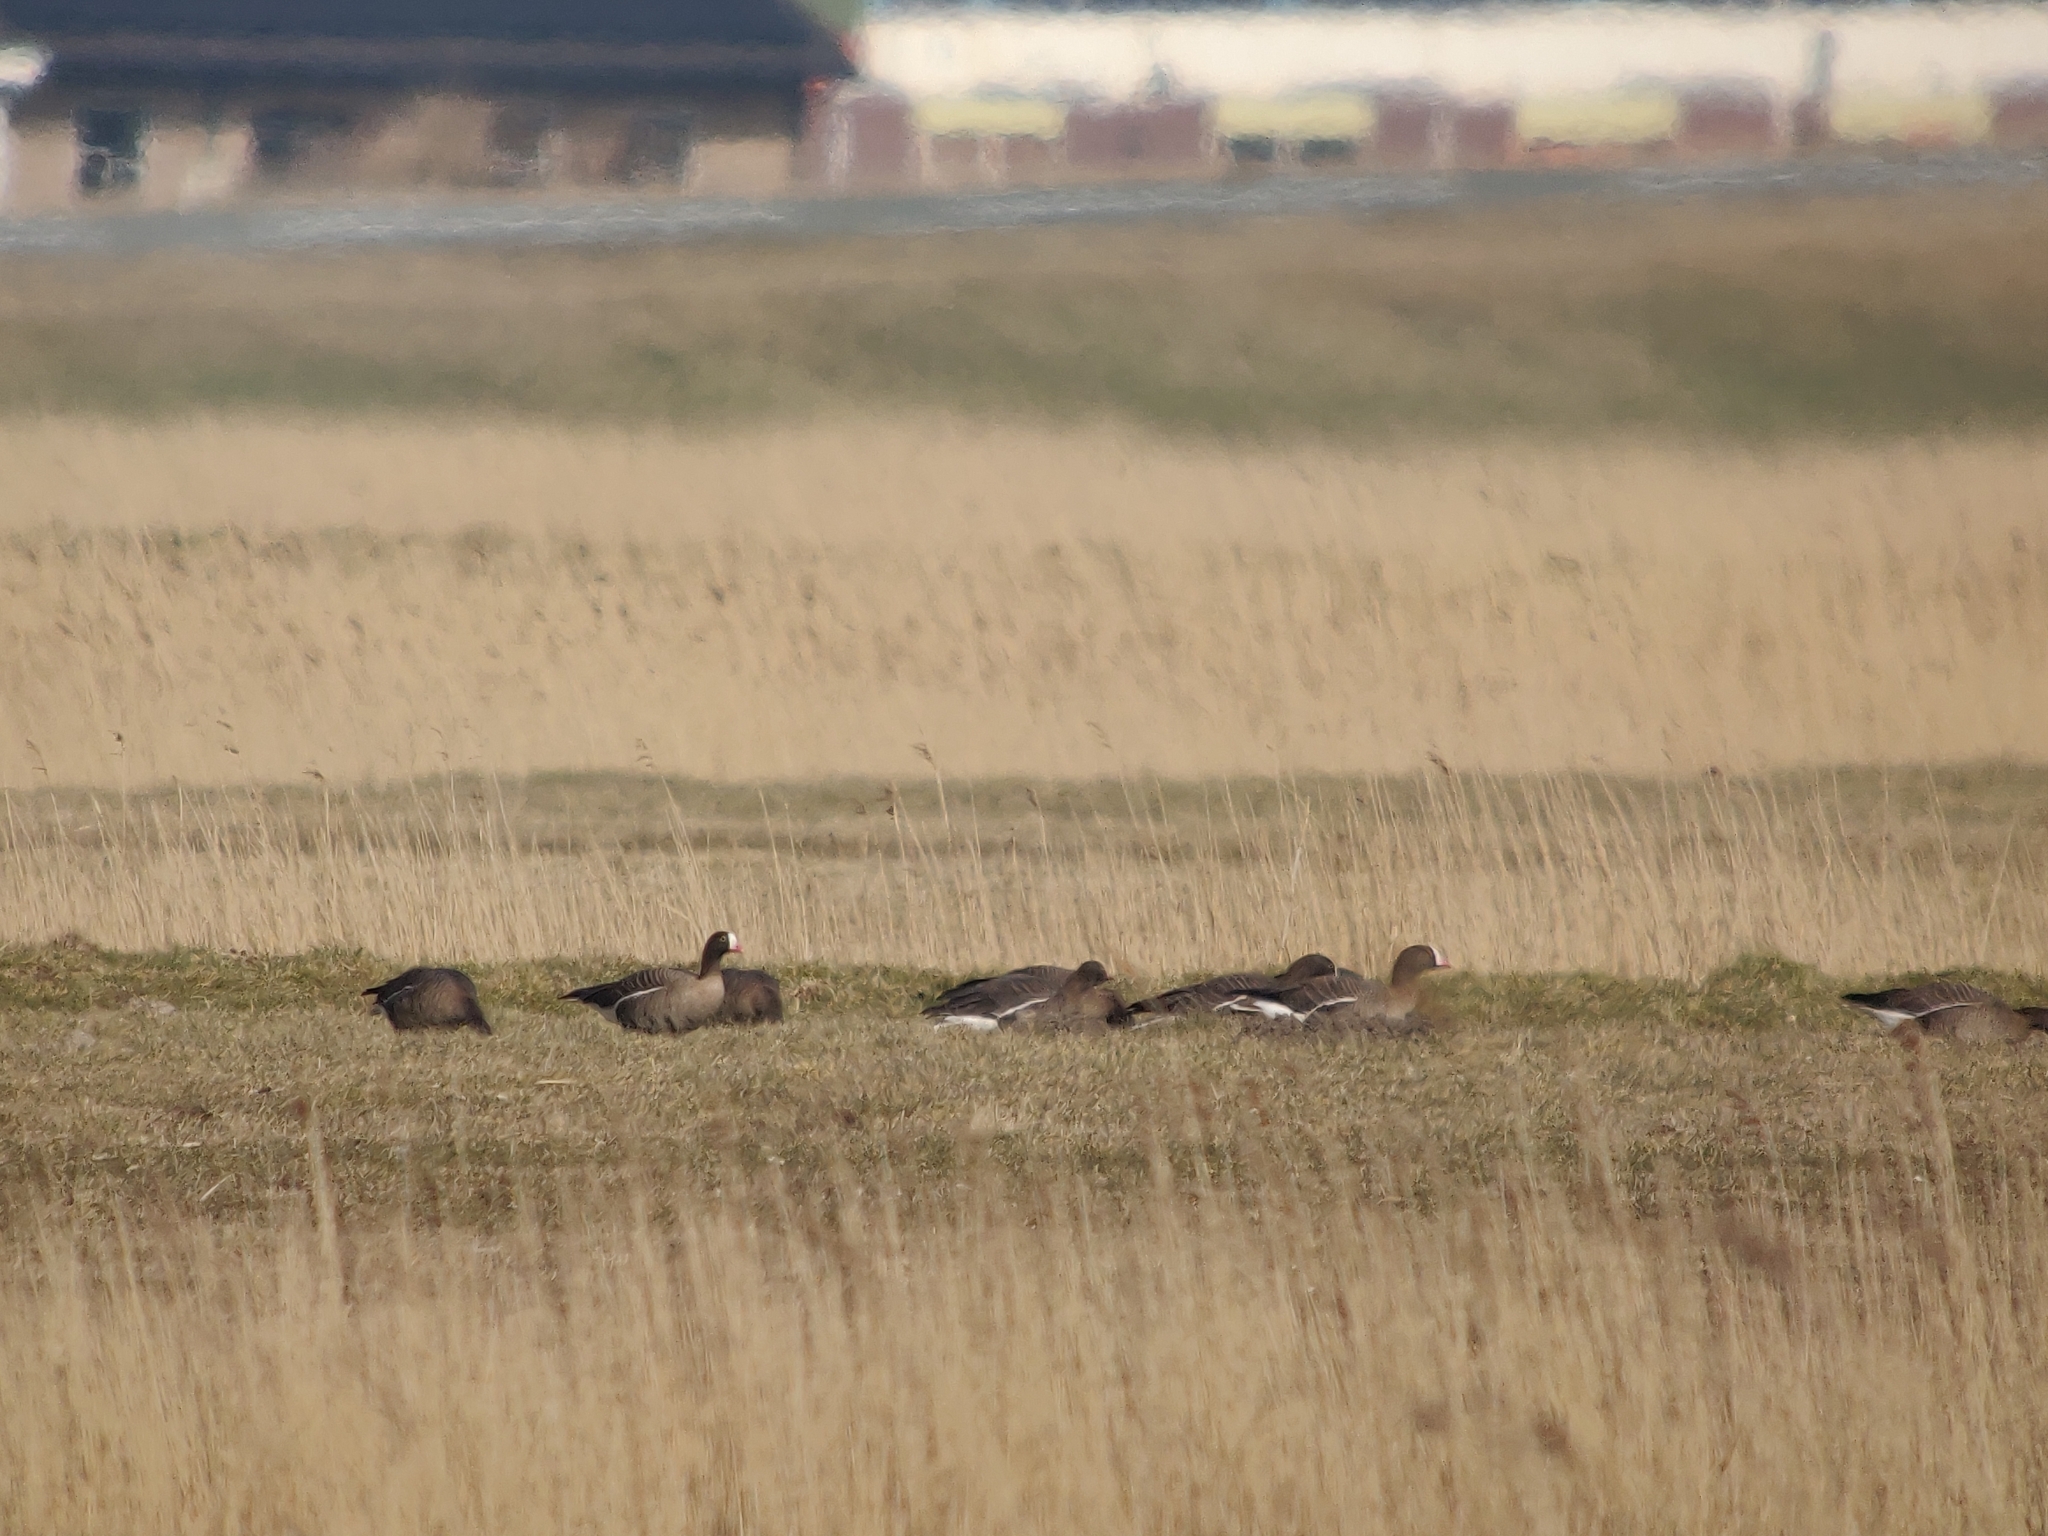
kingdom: Animalia
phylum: Chordata
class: Aves
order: Anseriformes
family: Anatidae
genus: Anser
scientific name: Anser erythropus
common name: Lesser white-fronted goose
